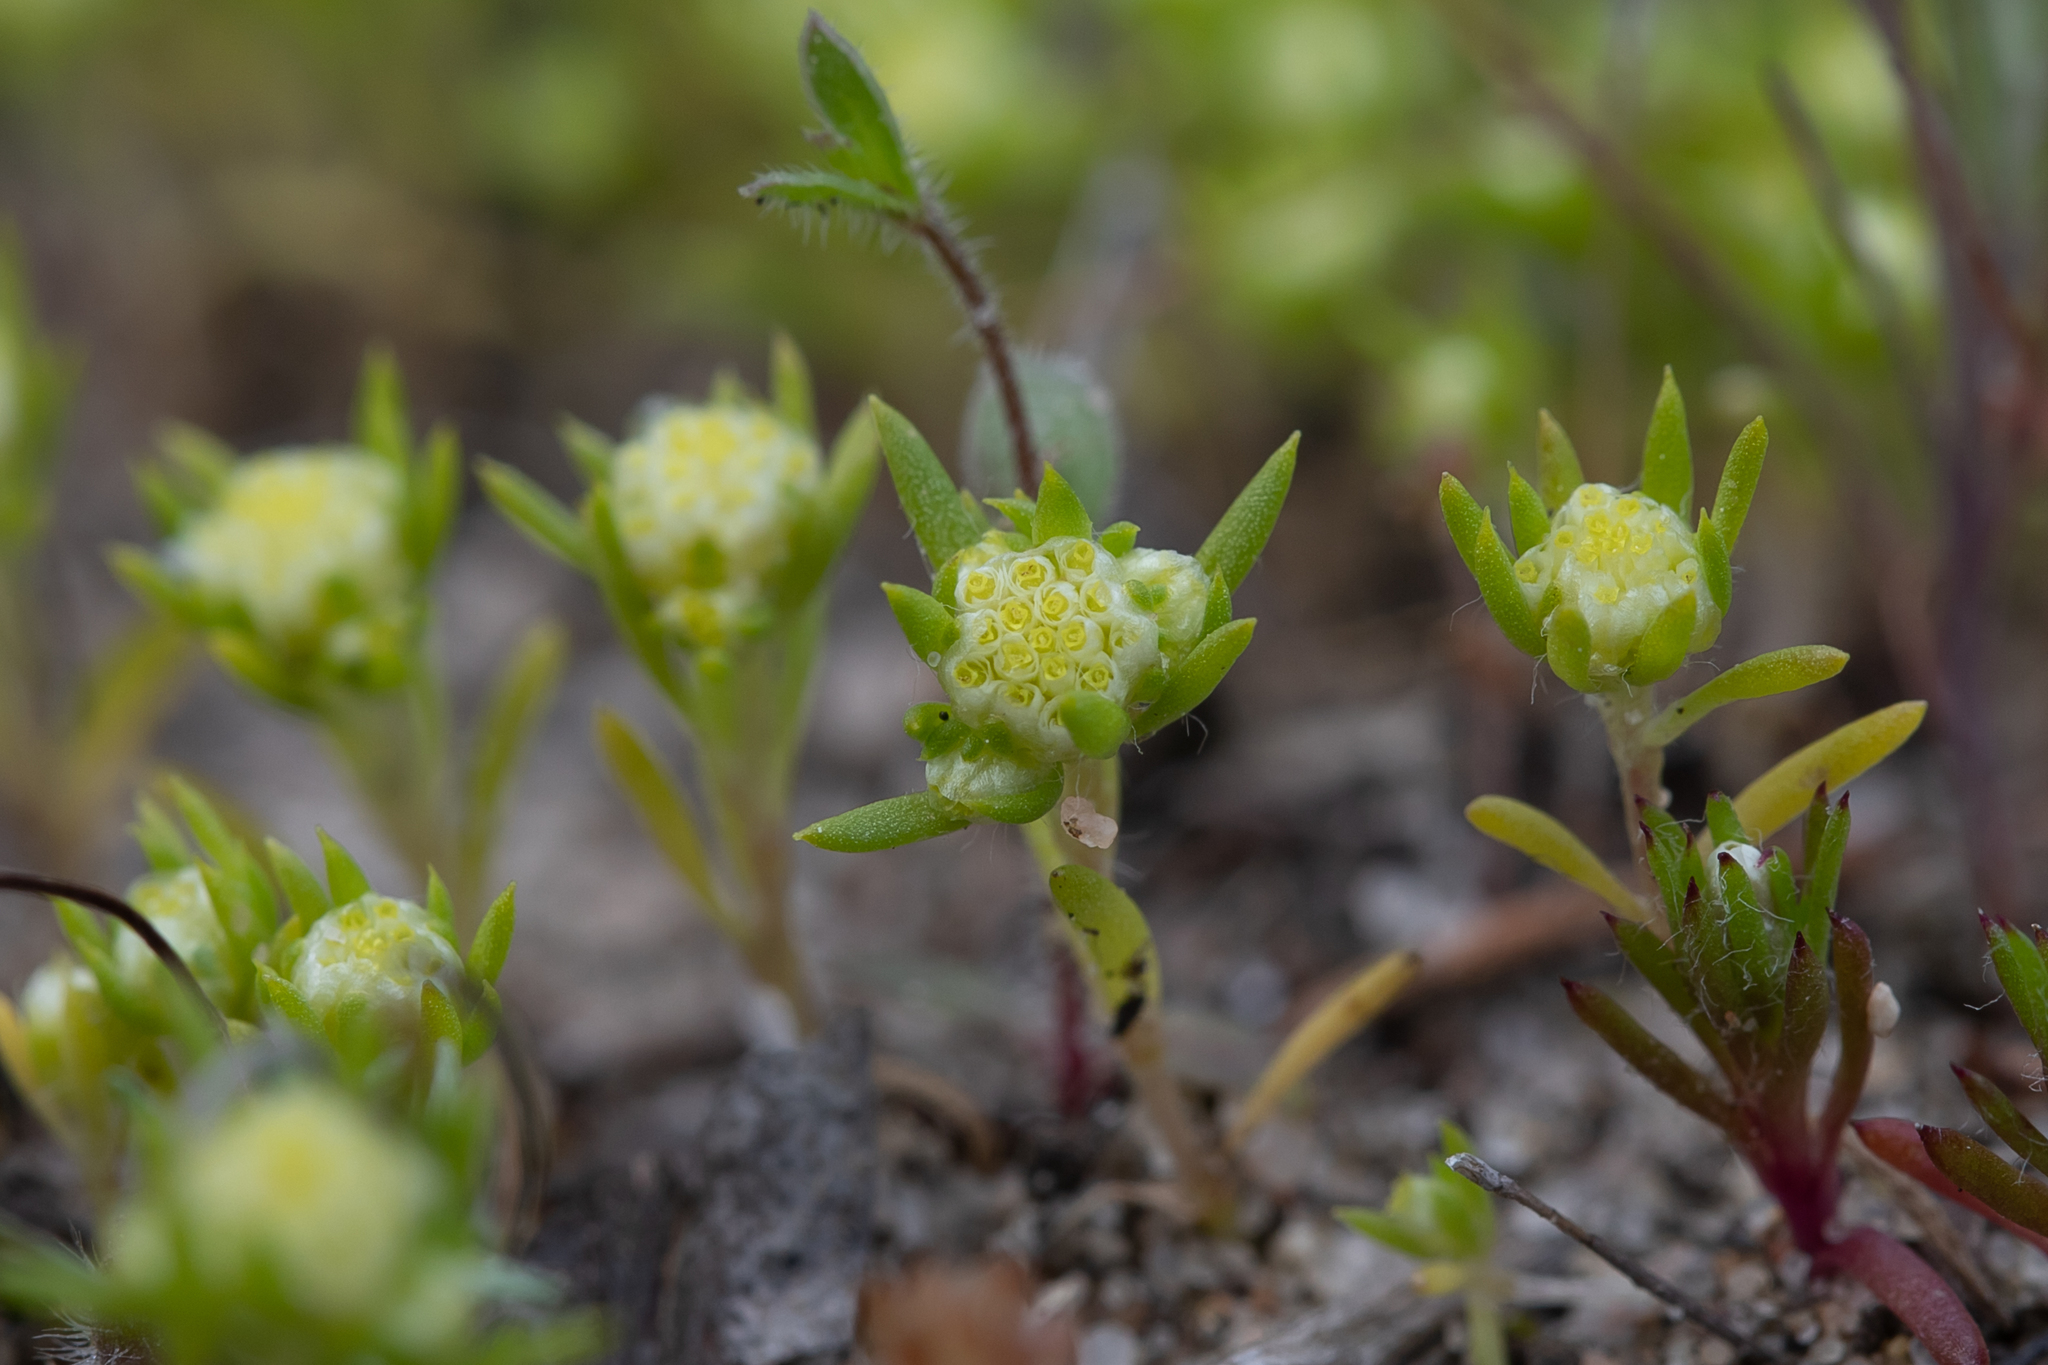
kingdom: Plantae
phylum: Tracheophyta
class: Magnoliopsida
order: Asterales
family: Asteraceae
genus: Siloxerus
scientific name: Siloxerus multiflorus
